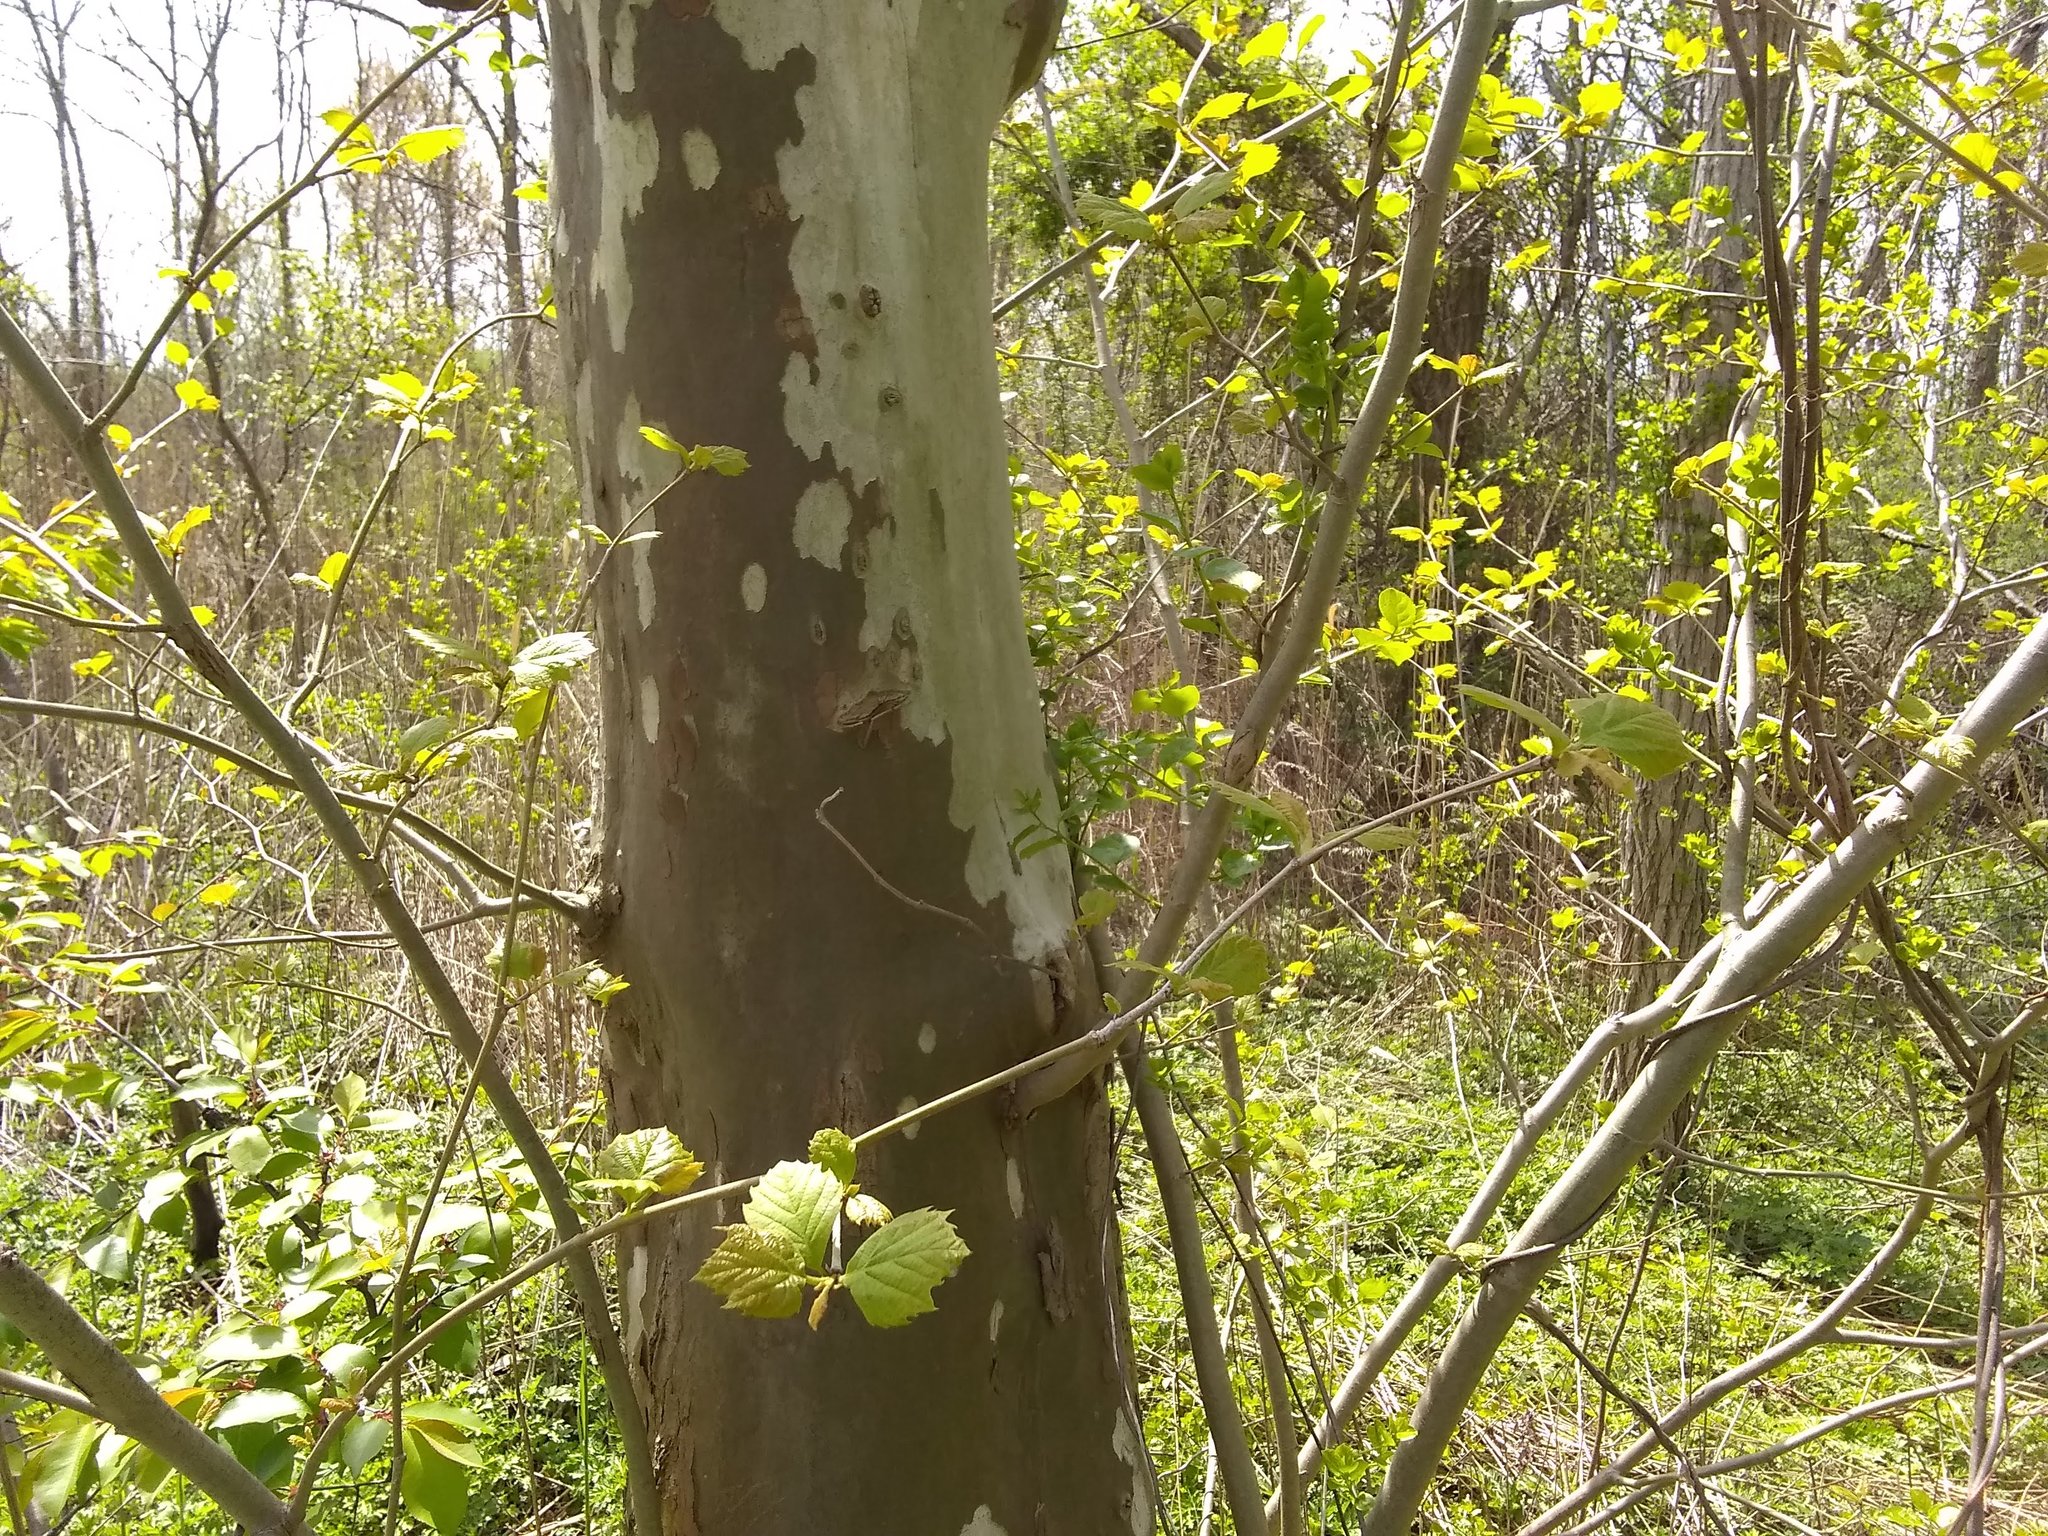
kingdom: Plantae
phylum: Tracheophyta
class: Magnoliopsida
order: Proteales
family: Platanaceae
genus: Platanus
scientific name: Platanus hispanica
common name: London plane
